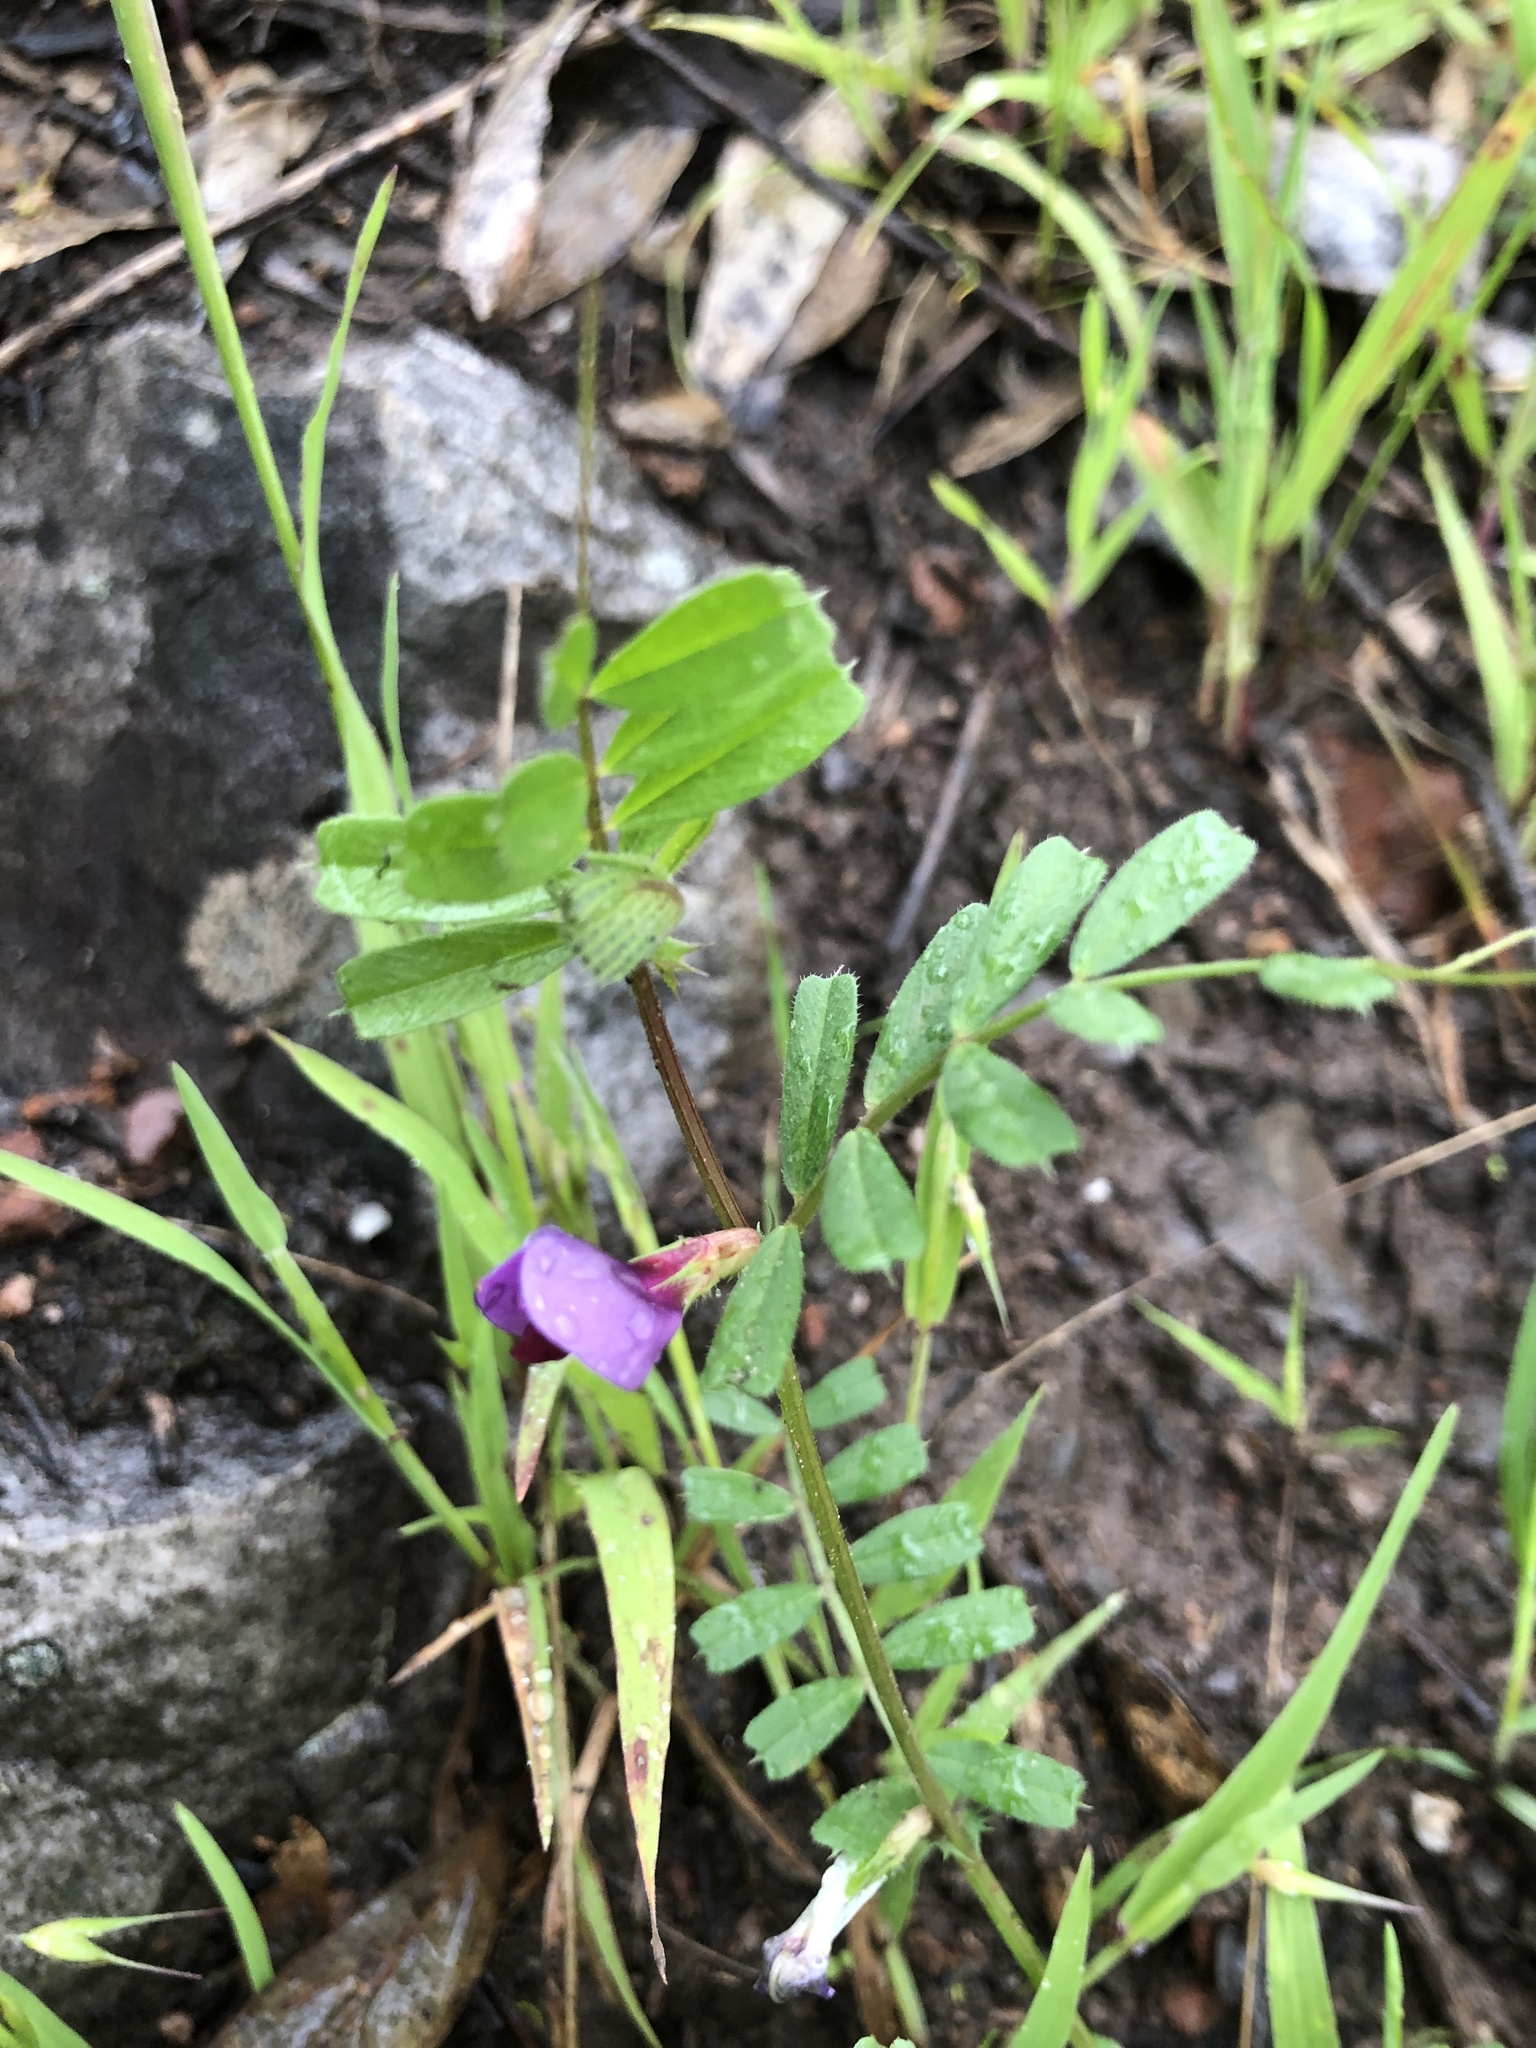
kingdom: Plantae
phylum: Tracheophyta
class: Magnoliopsida
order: Fabales
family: Fabaceae
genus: Vicia
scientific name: Vicia sativa
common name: Garden vetch
